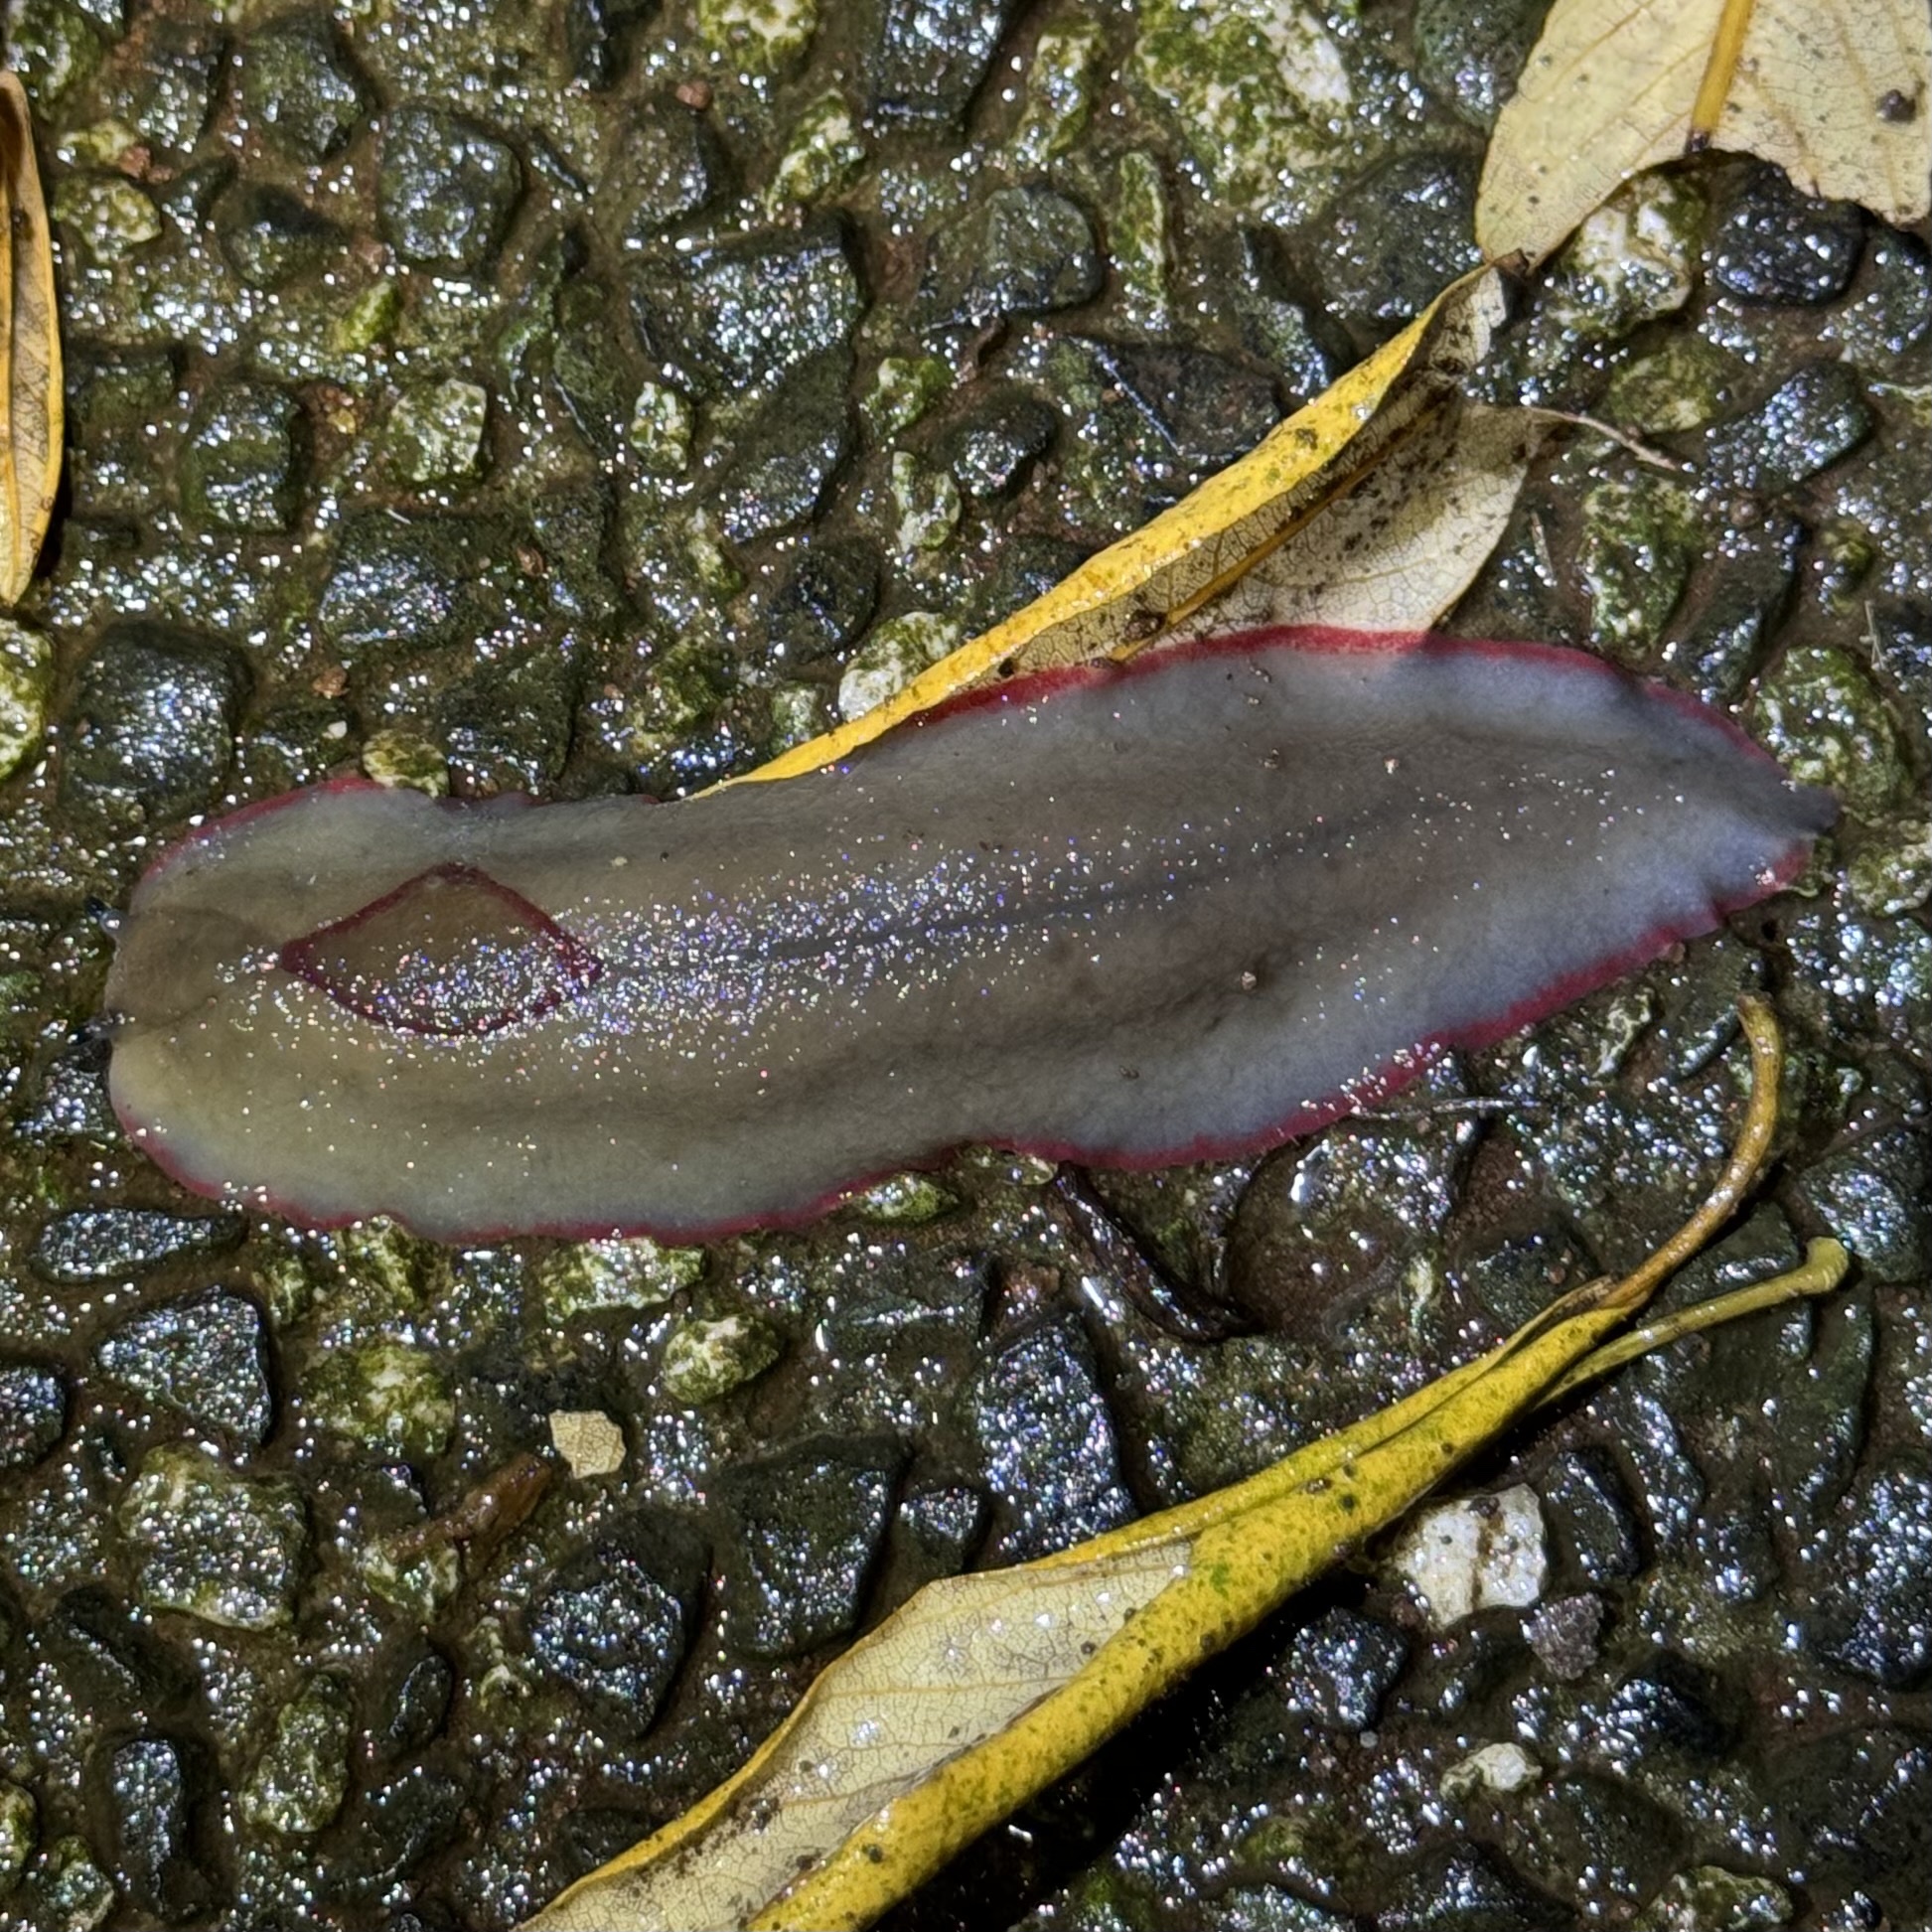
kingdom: Animalia
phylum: Mollusca
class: Gastropoda
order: Stylommatophora
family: Athoracophoridae
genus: Triboniophorus
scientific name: Triboniophorus graeffei
